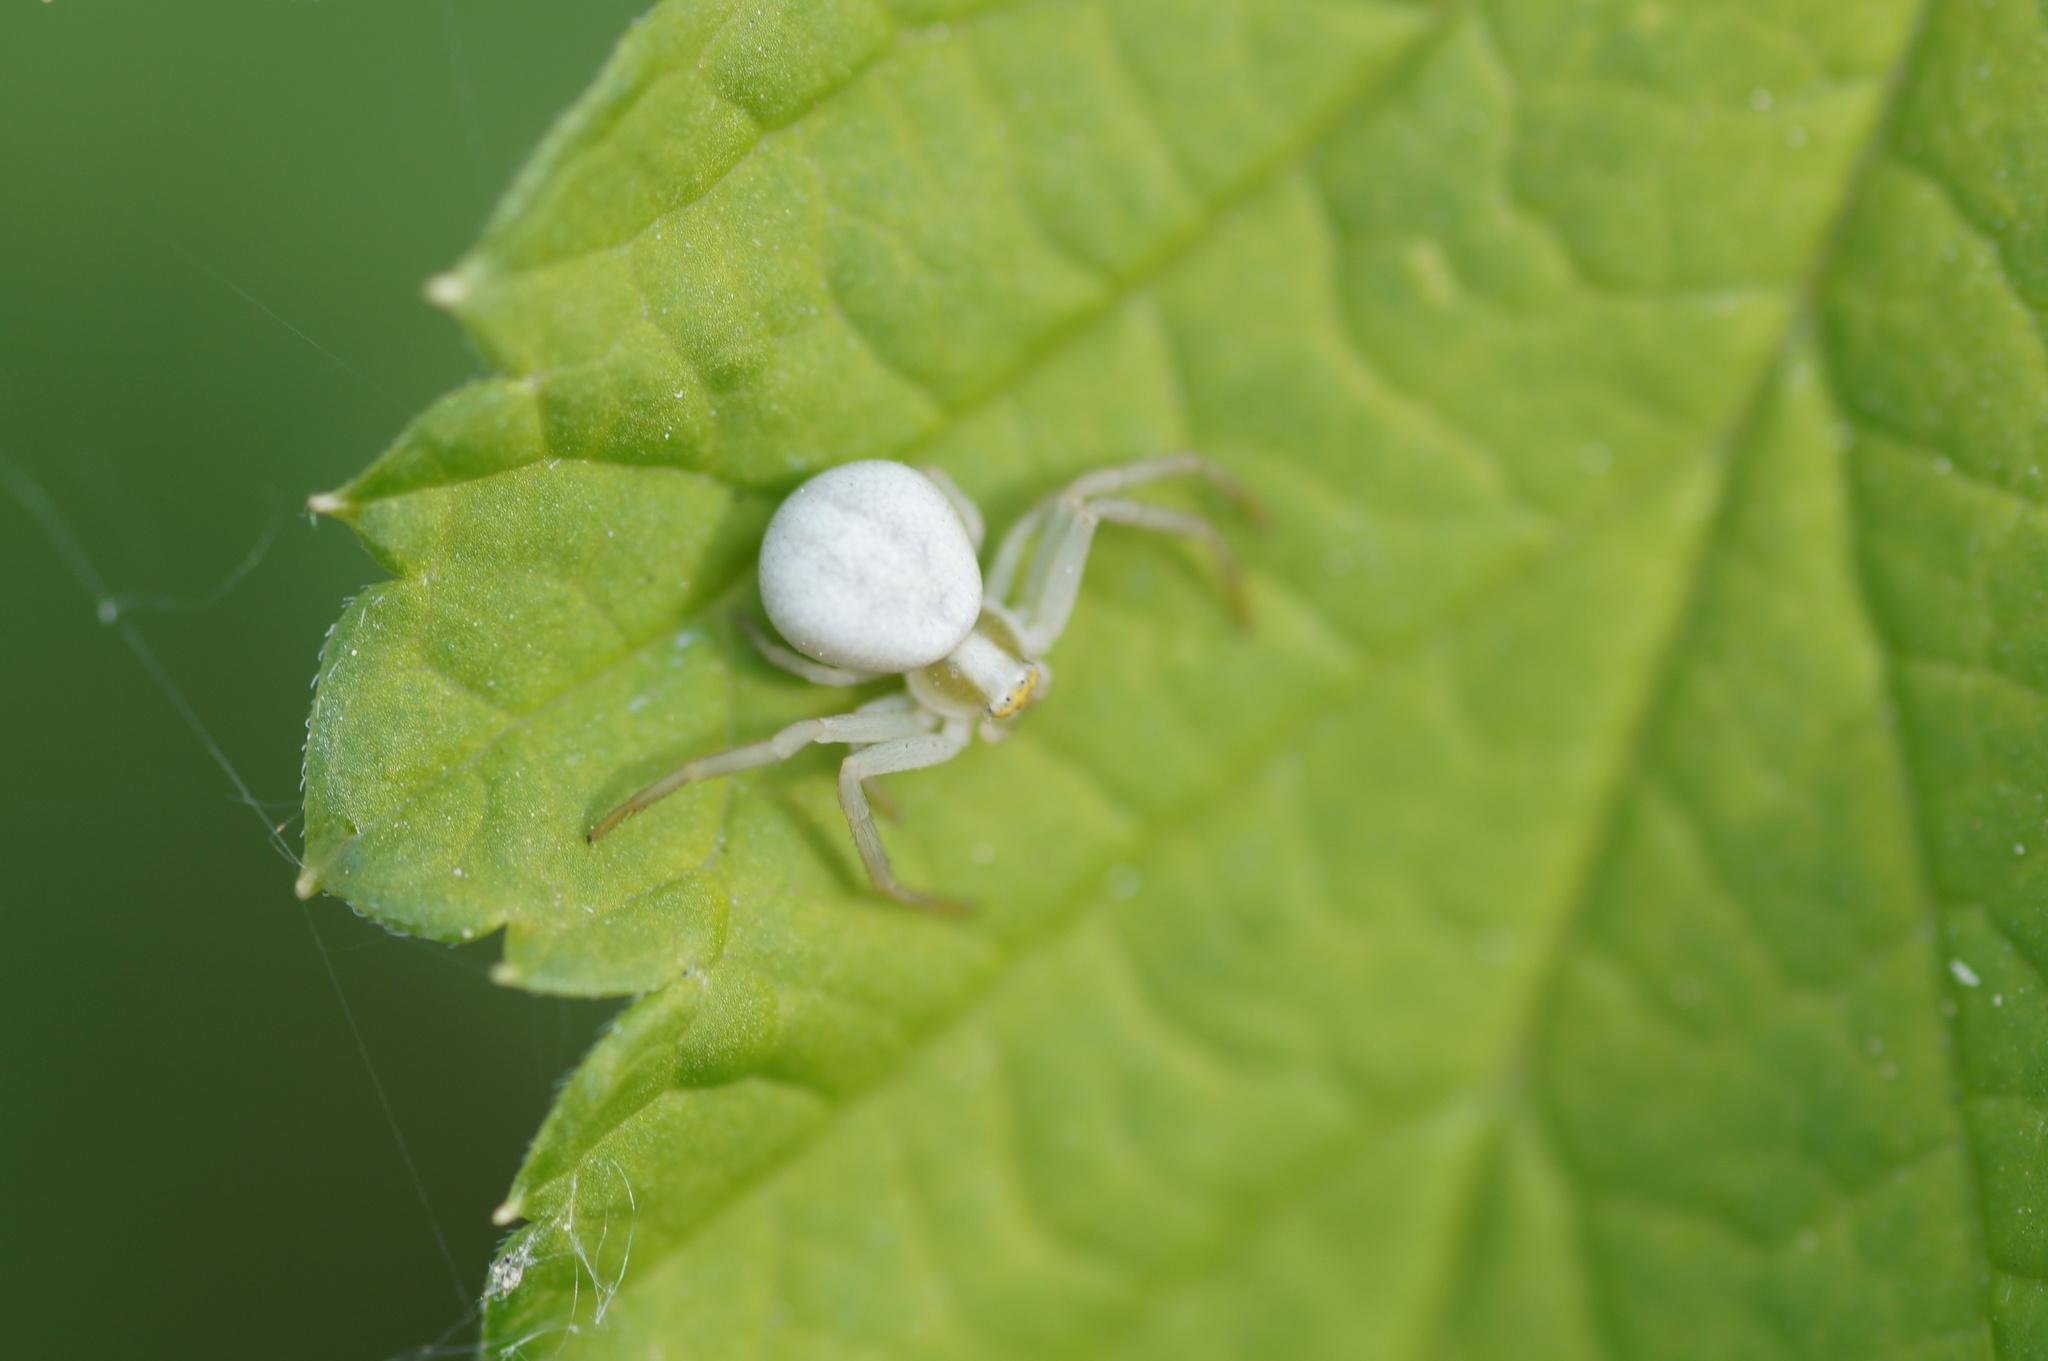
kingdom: Animalia
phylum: Arthropoda
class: Arachnida
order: Araneae
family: Thomisidae
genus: Misumena
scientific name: Misumena vatia
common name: Goldenrod crab spider
